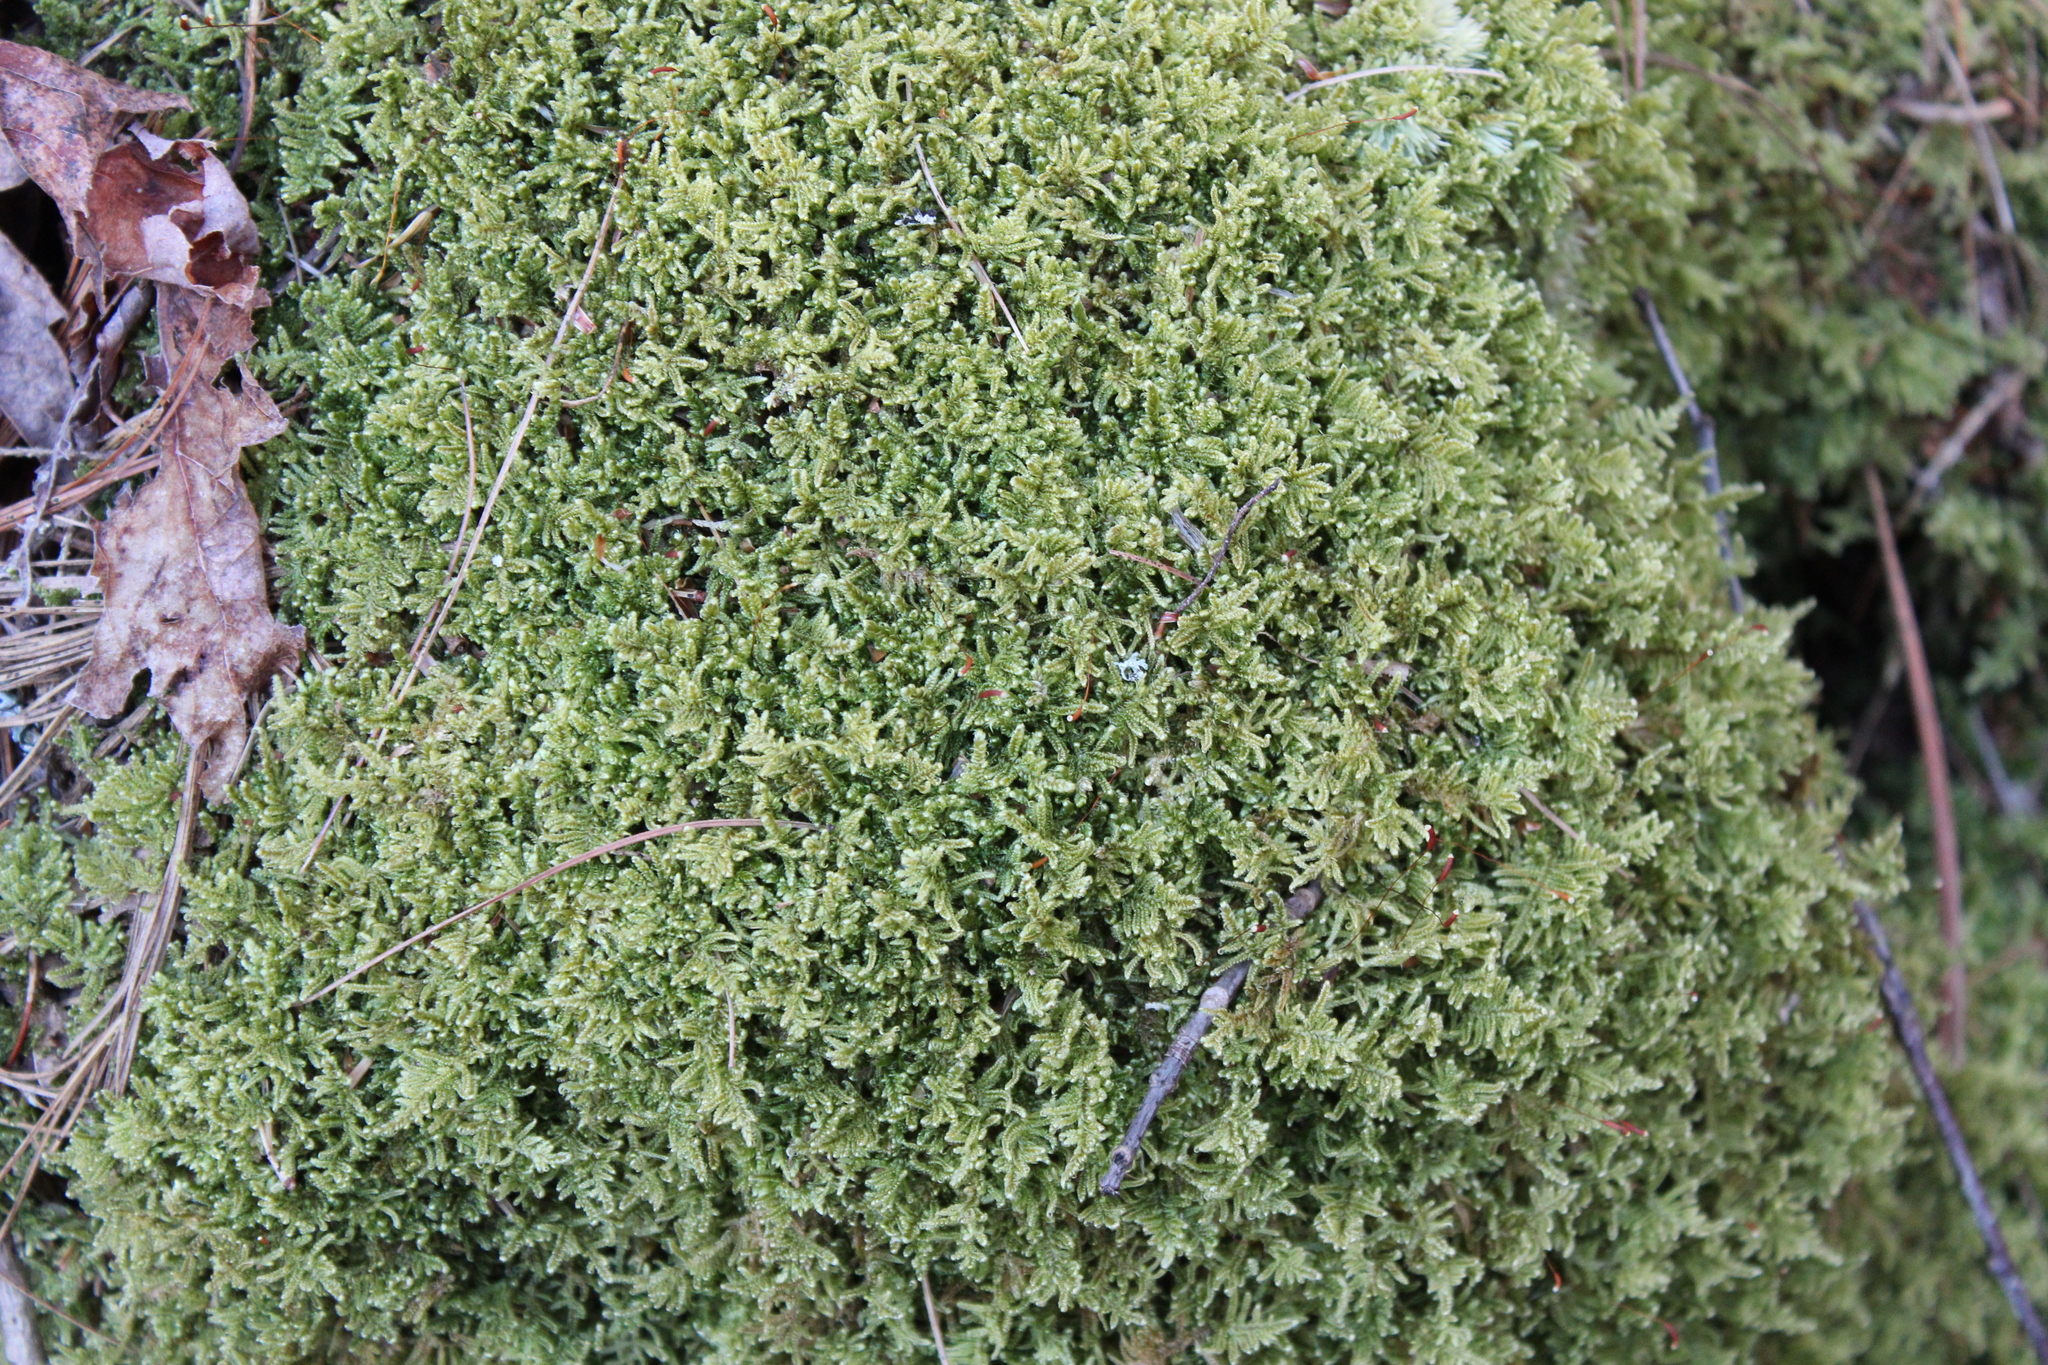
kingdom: Plantae
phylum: Bryophyta
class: Bryopsida
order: Hypnales
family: Callicladiaceae
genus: Callicladium
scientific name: Callicladium imponens
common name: Brocade moss
